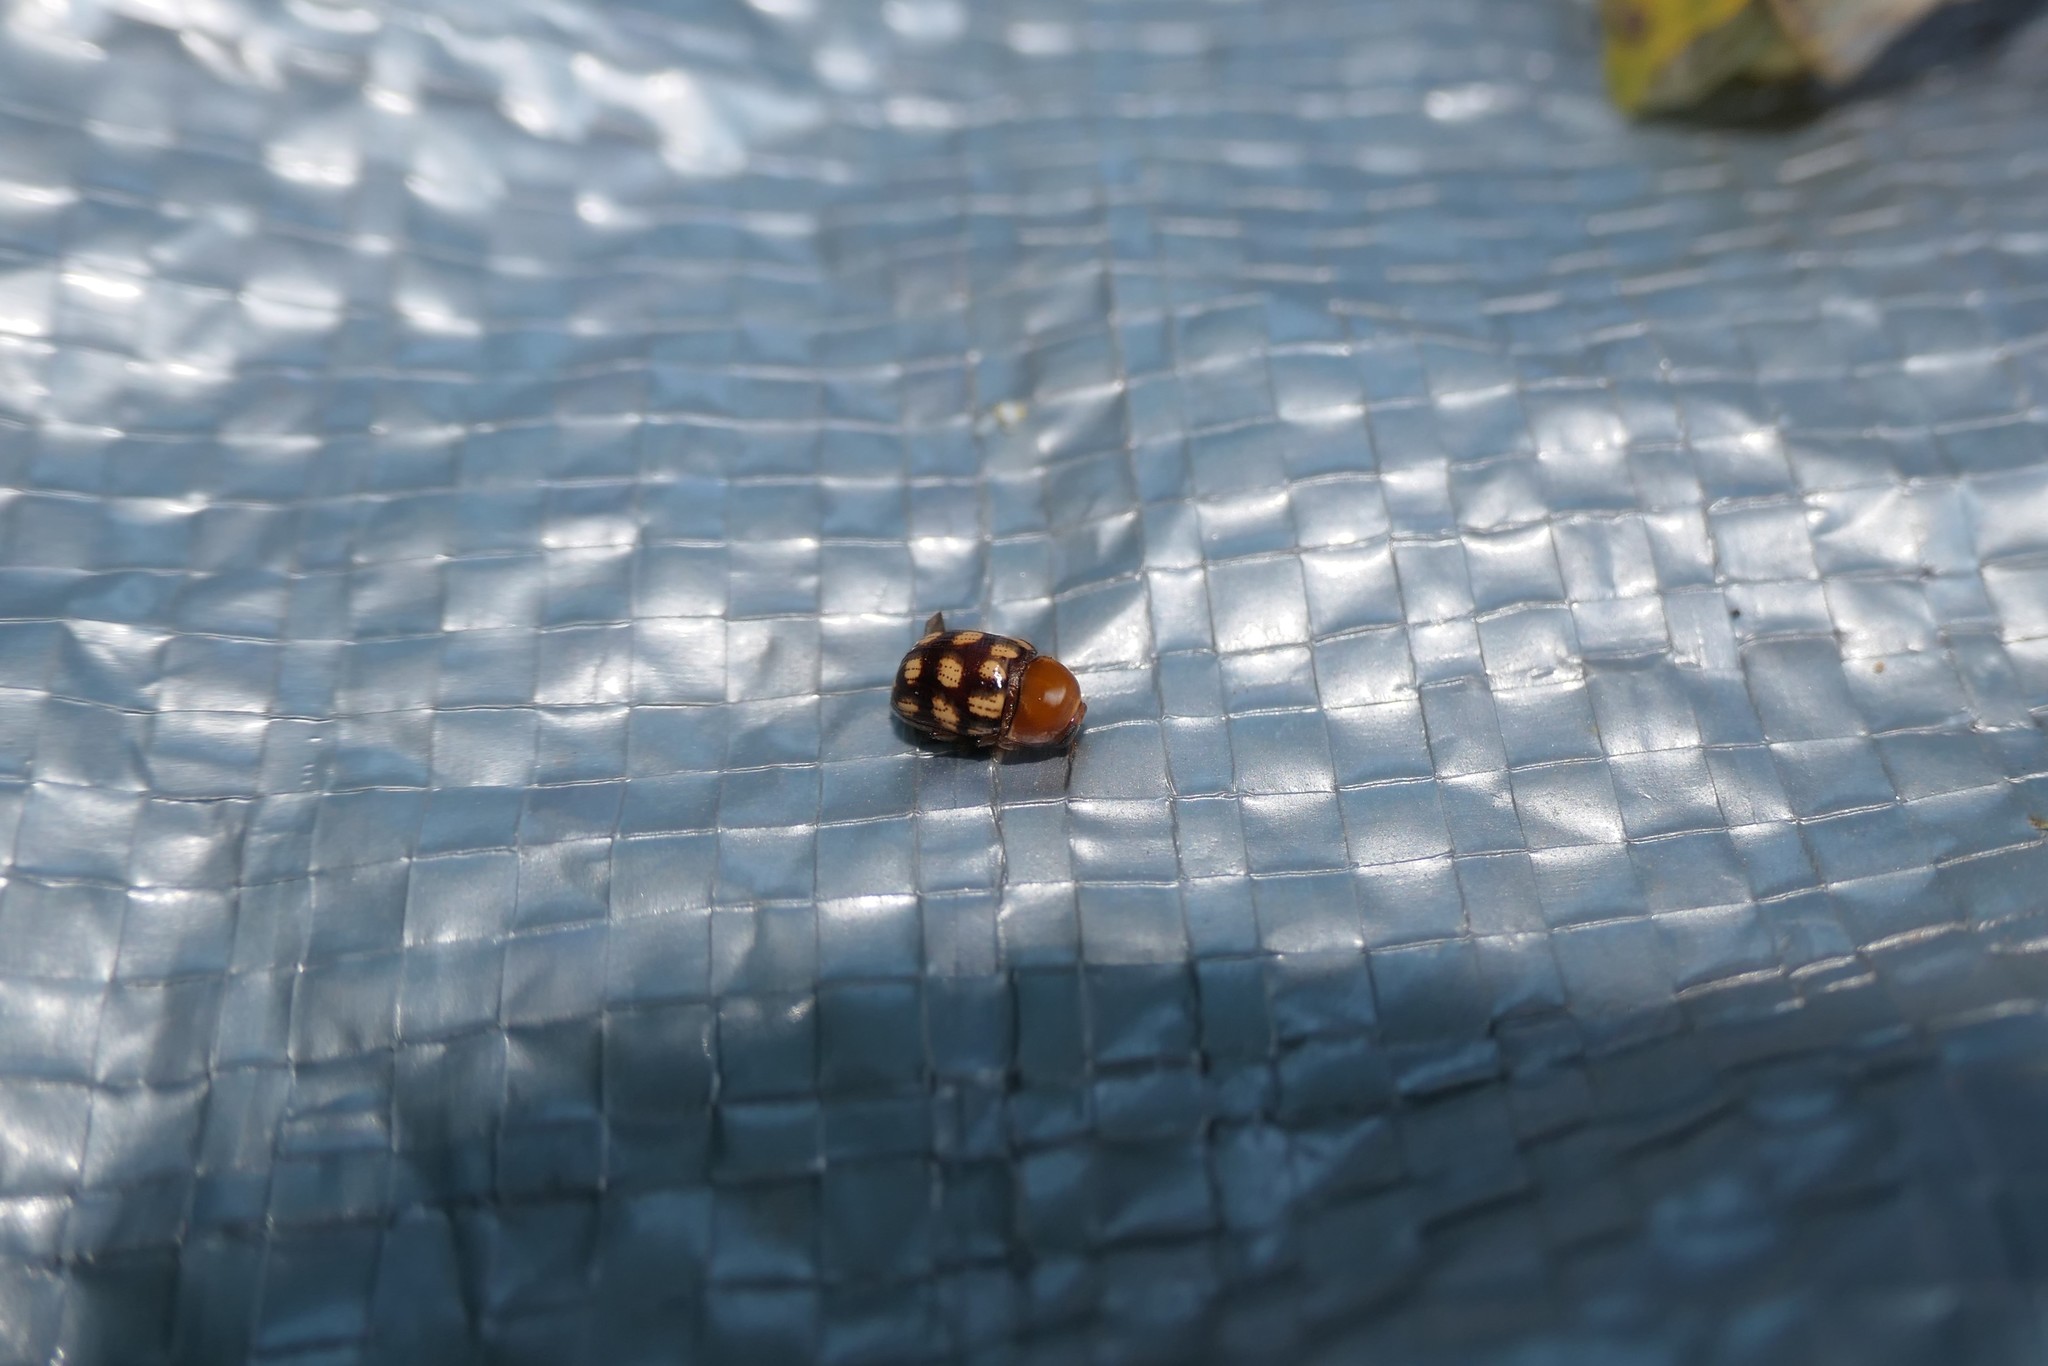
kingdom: Animalia
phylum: Arthropoda
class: Insecta
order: Coleoptera
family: Chrysomelidae
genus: Cryptocephalus
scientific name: Cryptocephalus guttulatus
